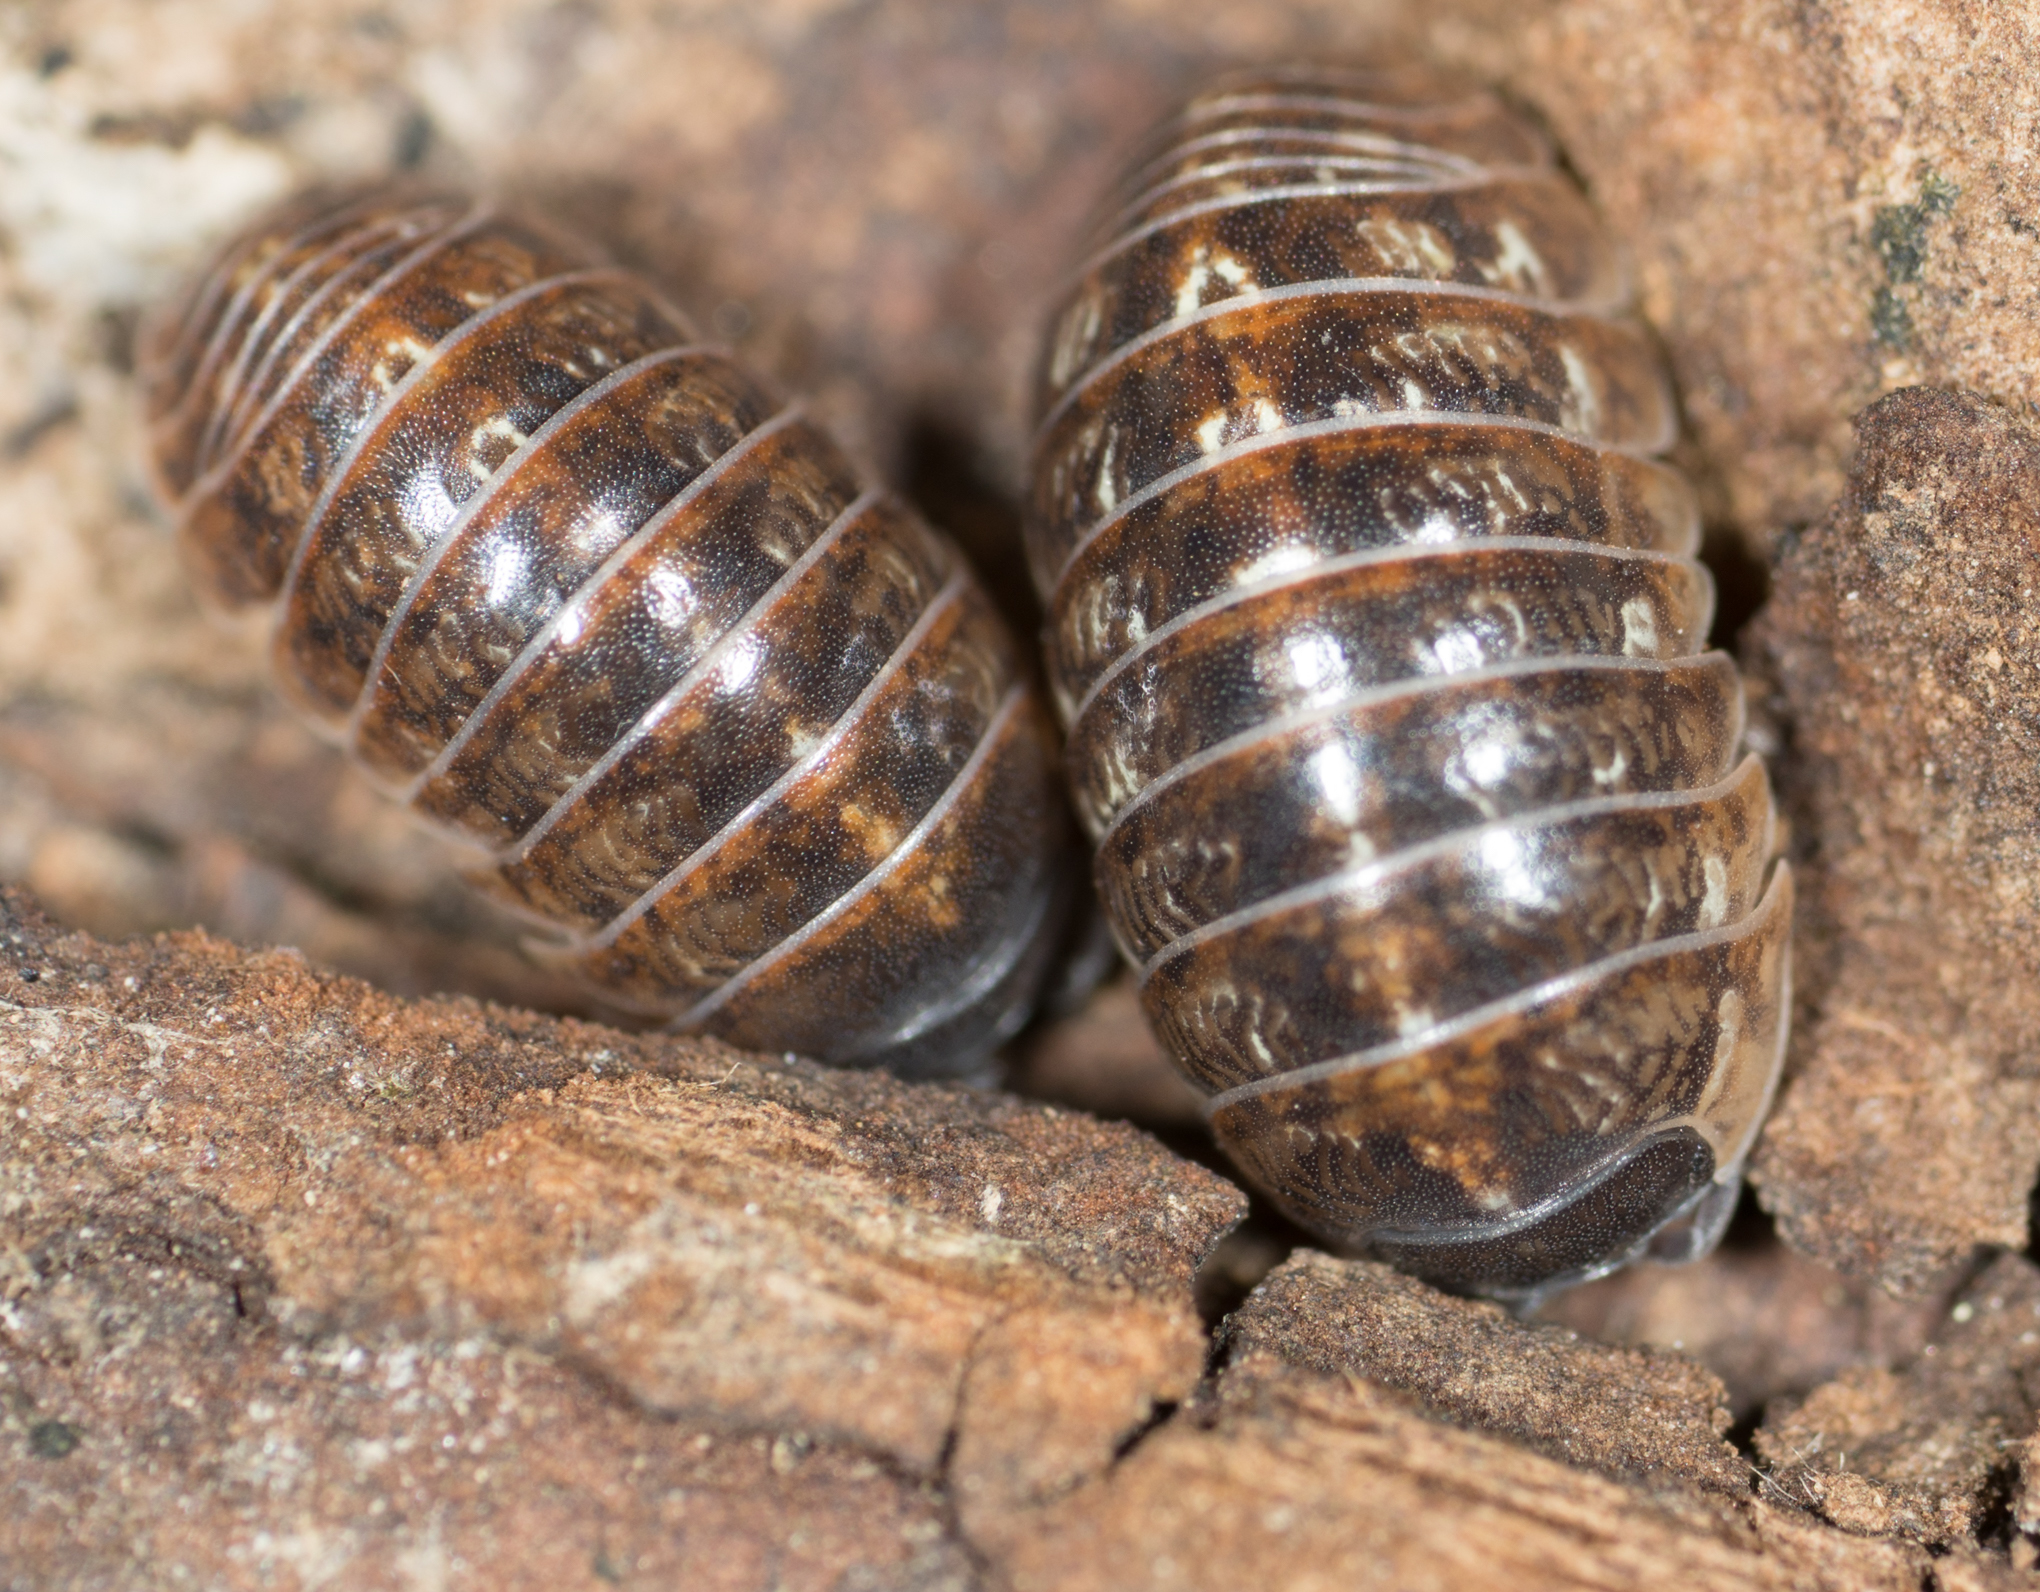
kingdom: Animalia
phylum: Arthropoda
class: Malacostraca
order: Isopoda
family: Armadillidiidae
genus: Armadillidium
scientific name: Armadillidium vulgare
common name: Common pill woodlouse
